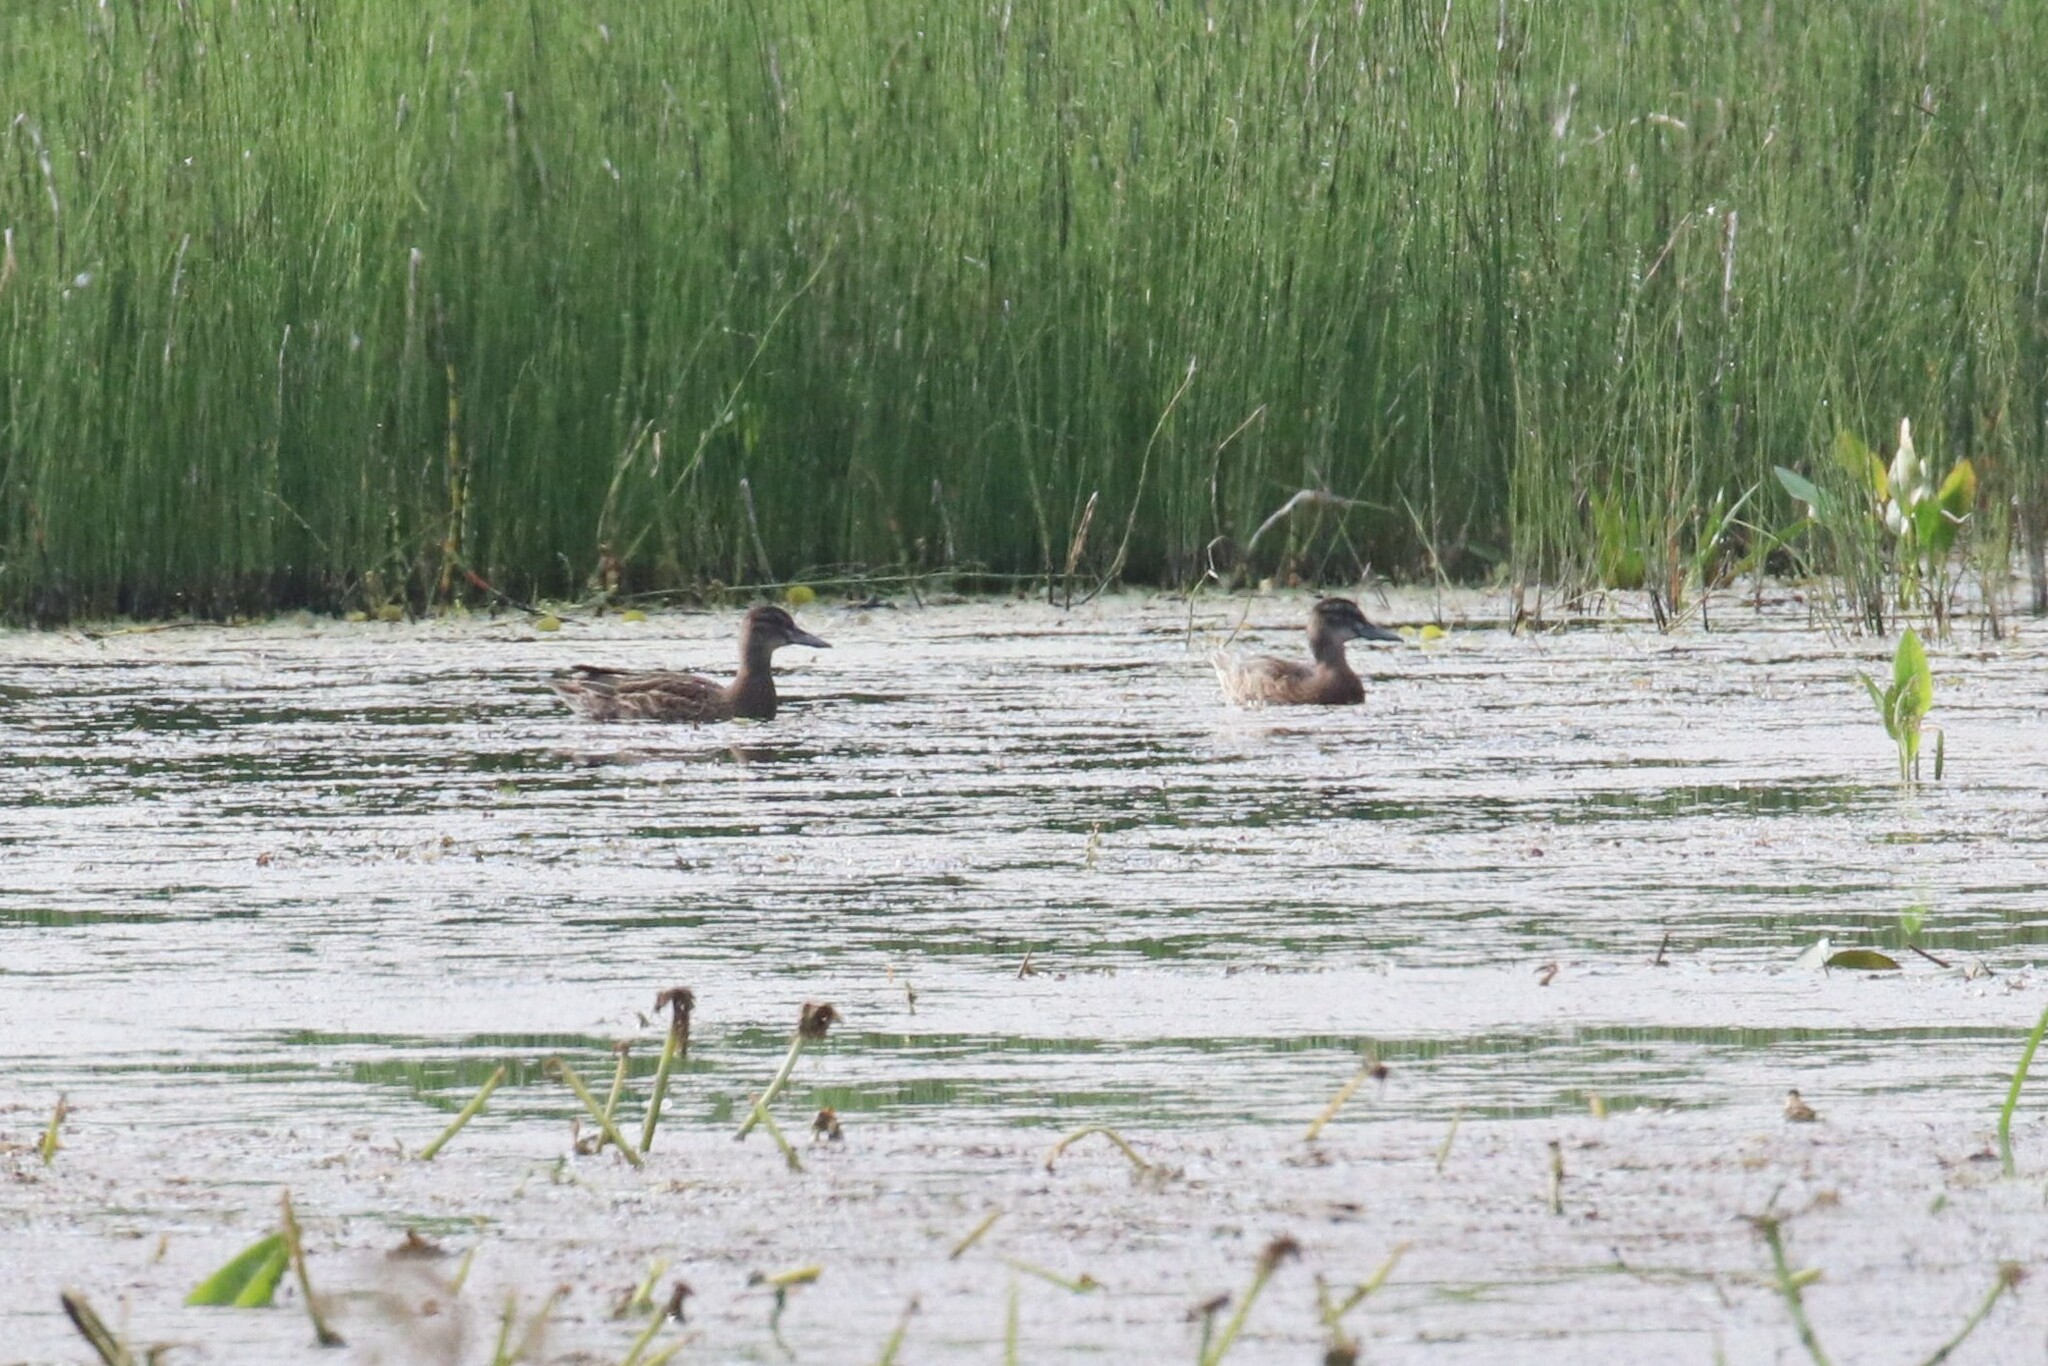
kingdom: Animalia
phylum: Chordata
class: Aves
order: Anseriformes
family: Anatidae
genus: Spatula
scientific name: Spatula querquedula
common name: Garganey
